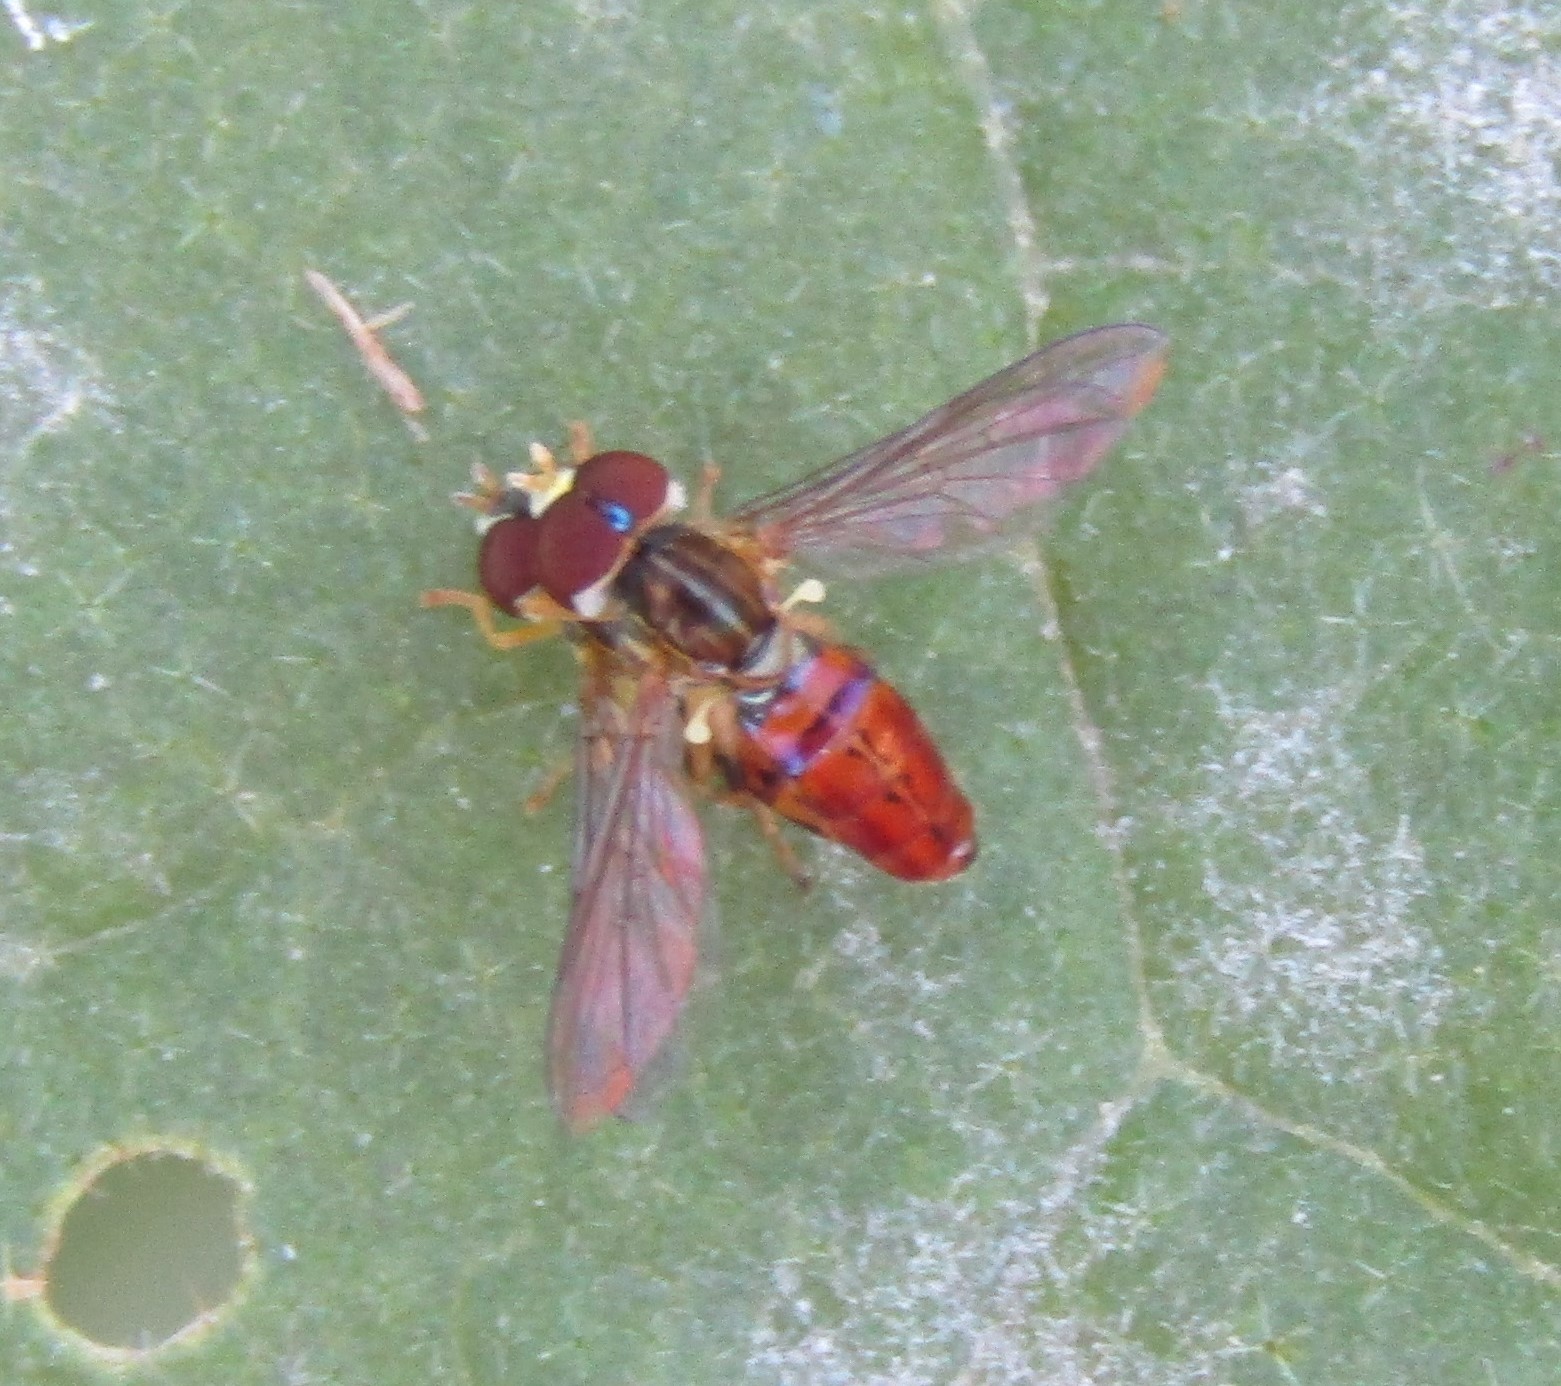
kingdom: Animalia
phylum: Arthropoda
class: Insecta
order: Diptera
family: Syrphidae
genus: Toxomerus
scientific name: Toxomerus boscii
